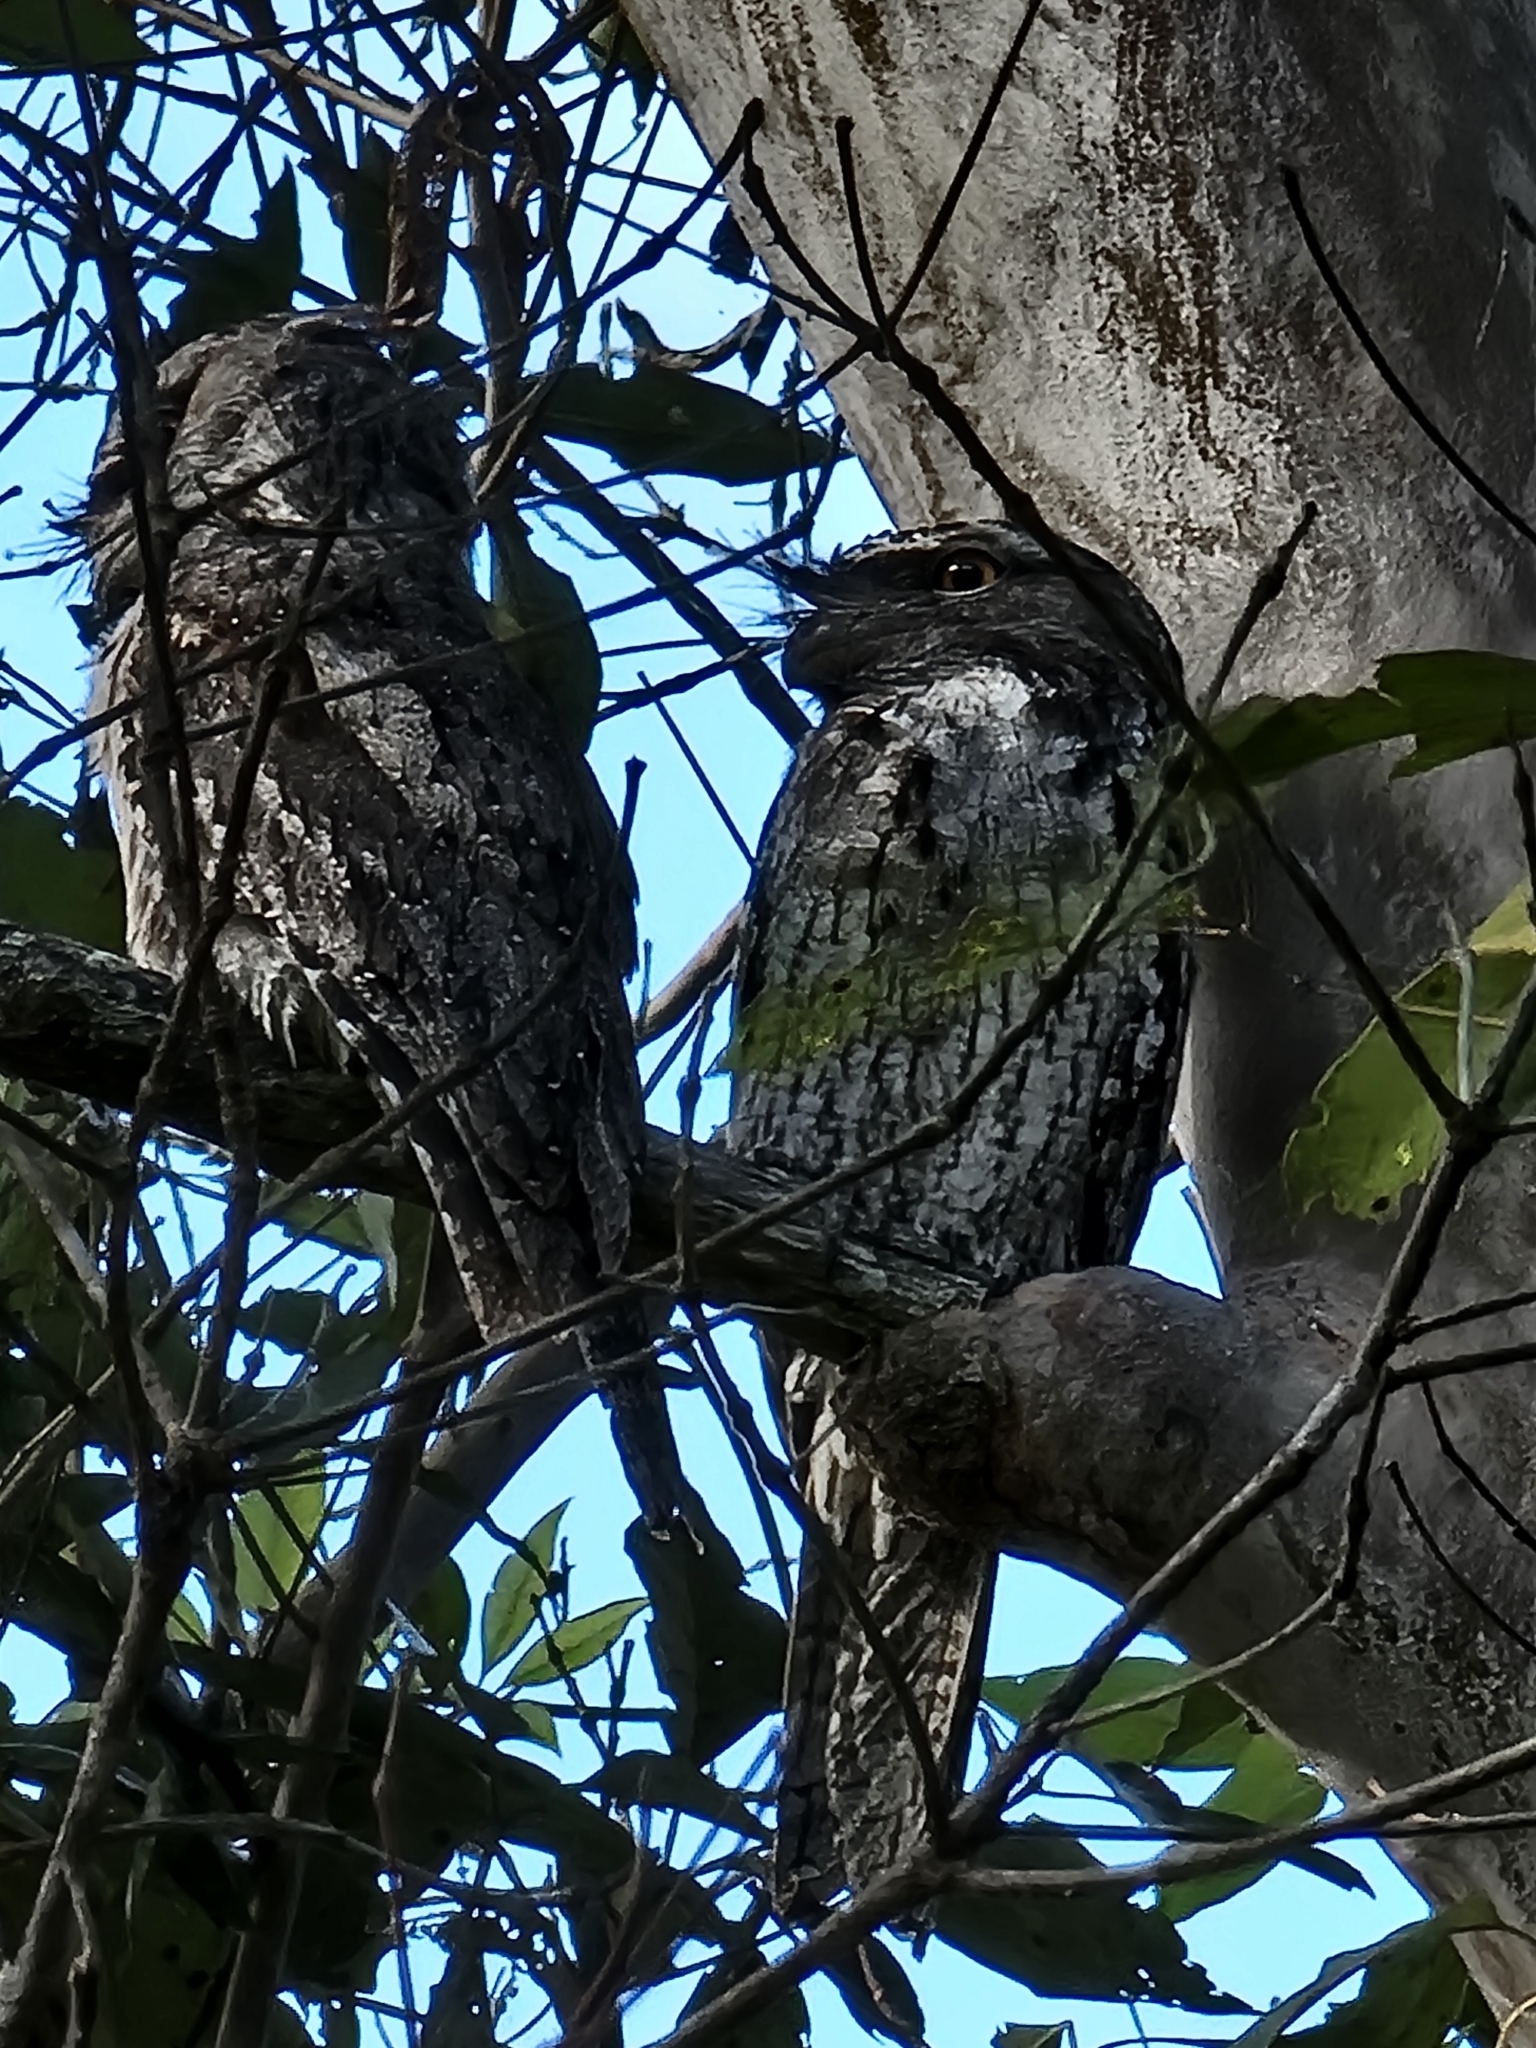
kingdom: Animalia
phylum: Chordata
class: Aves
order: Caprimulgiformes
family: Podargidae
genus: Podargus
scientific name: Podargus strigoides
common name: Tawny frogmouth
